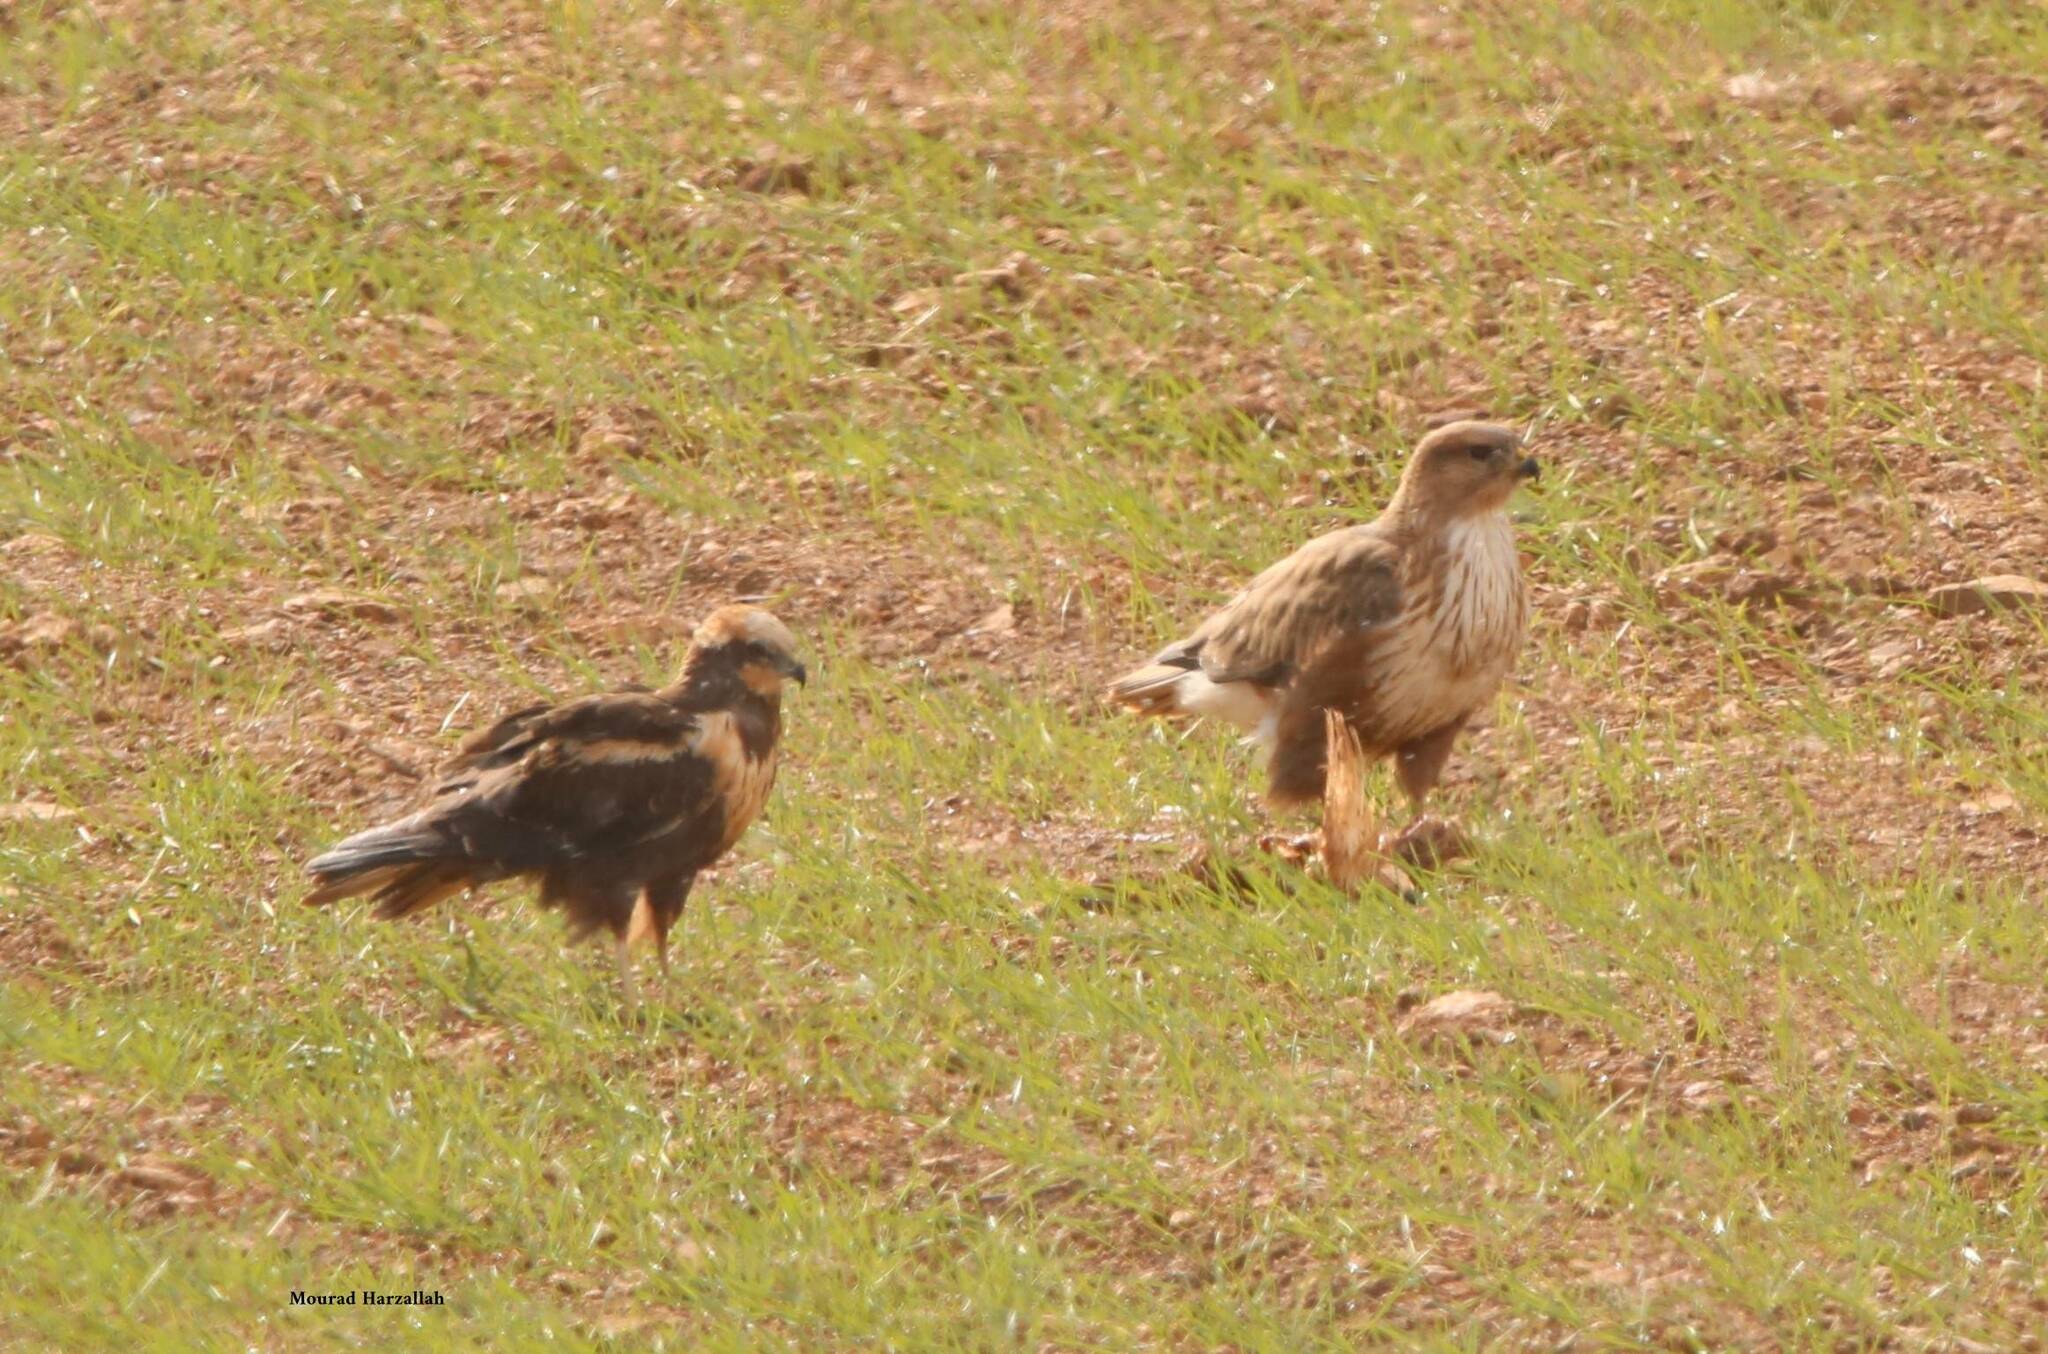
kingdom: Animalia
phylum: Chordata
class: Aves
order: Accipitriformes
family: Accipitridae
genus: Buteo
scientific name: Buteo rufinus
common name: Long-legged buzzard
